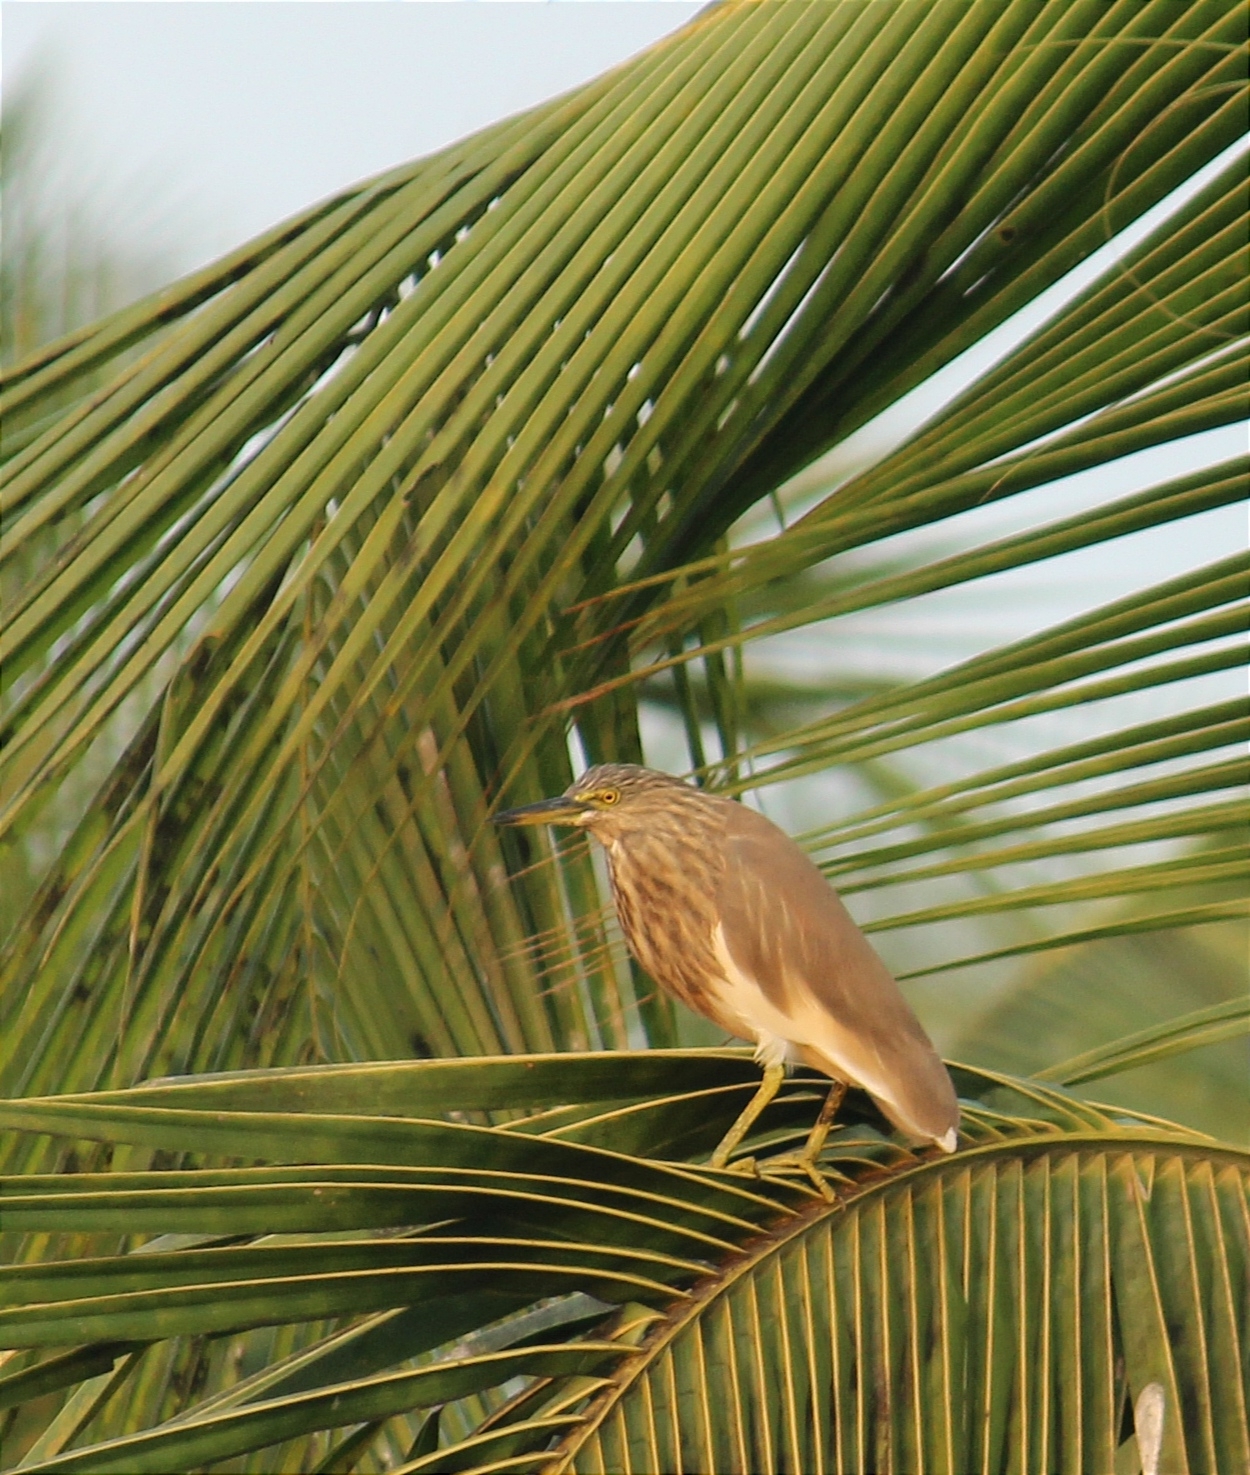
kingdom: Animalia
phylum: Chordata
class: Aves
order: Pelecaniformes
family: Ardeidae
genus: Ardeola
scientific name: Ardeola grayii
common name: Indian pond heron
